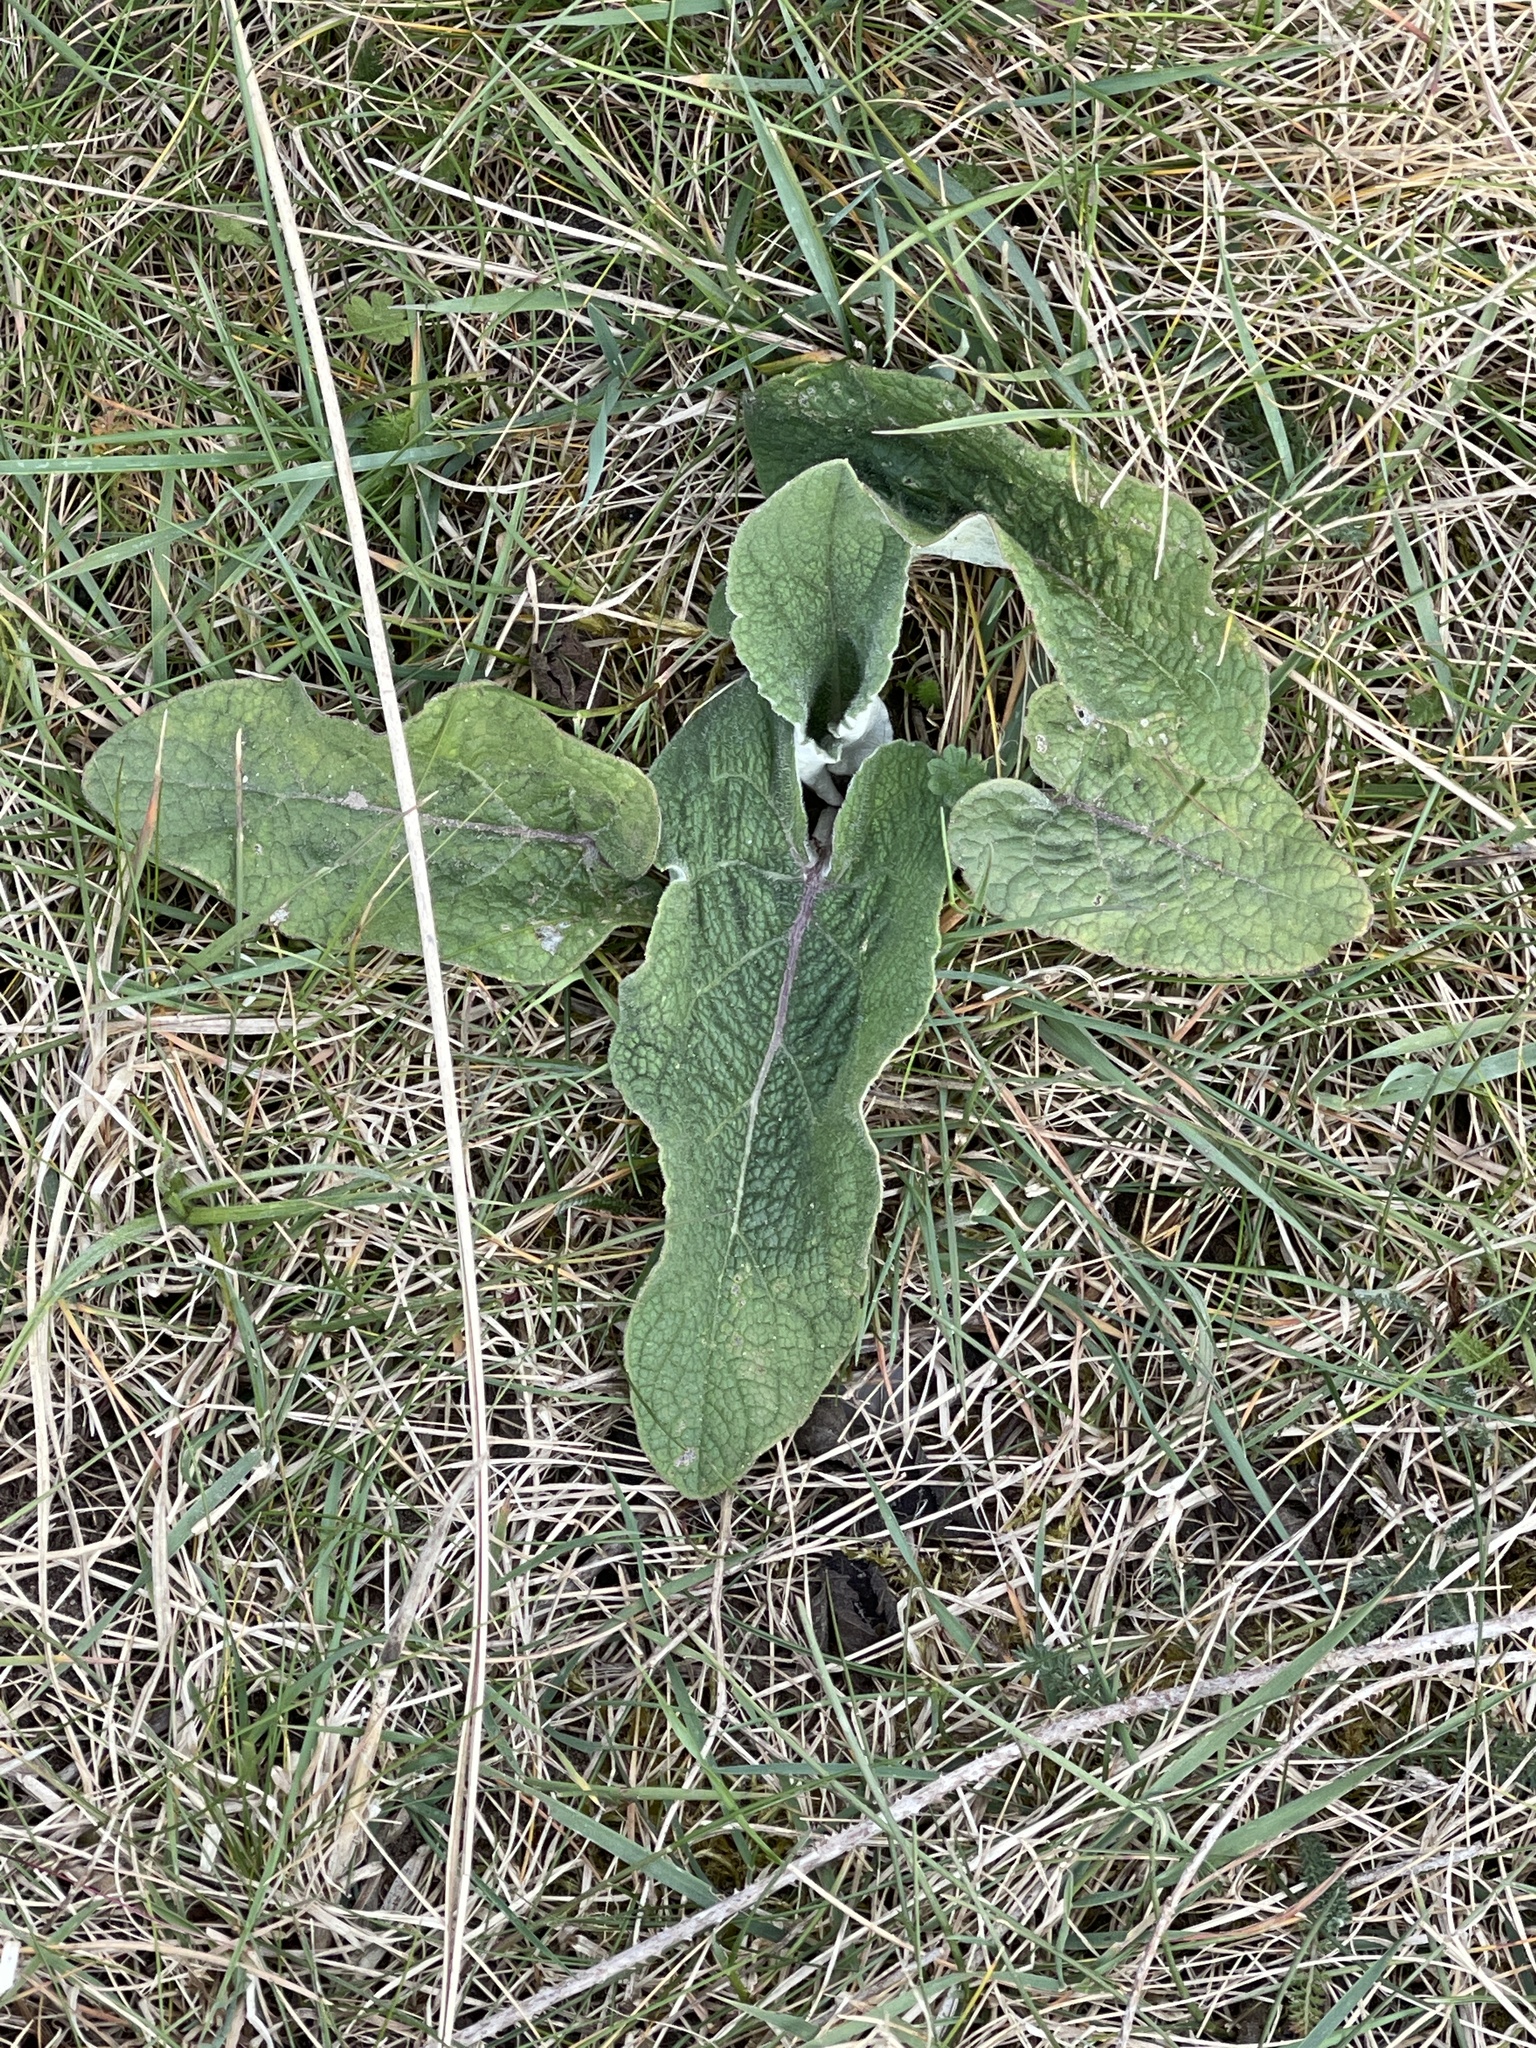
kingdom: Plantae
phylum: Tracheophyta
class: Magnoliopsida
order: Asterales
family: Asteraceae
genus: Arctium
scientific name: Arctium minus
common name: Lesser burdock
